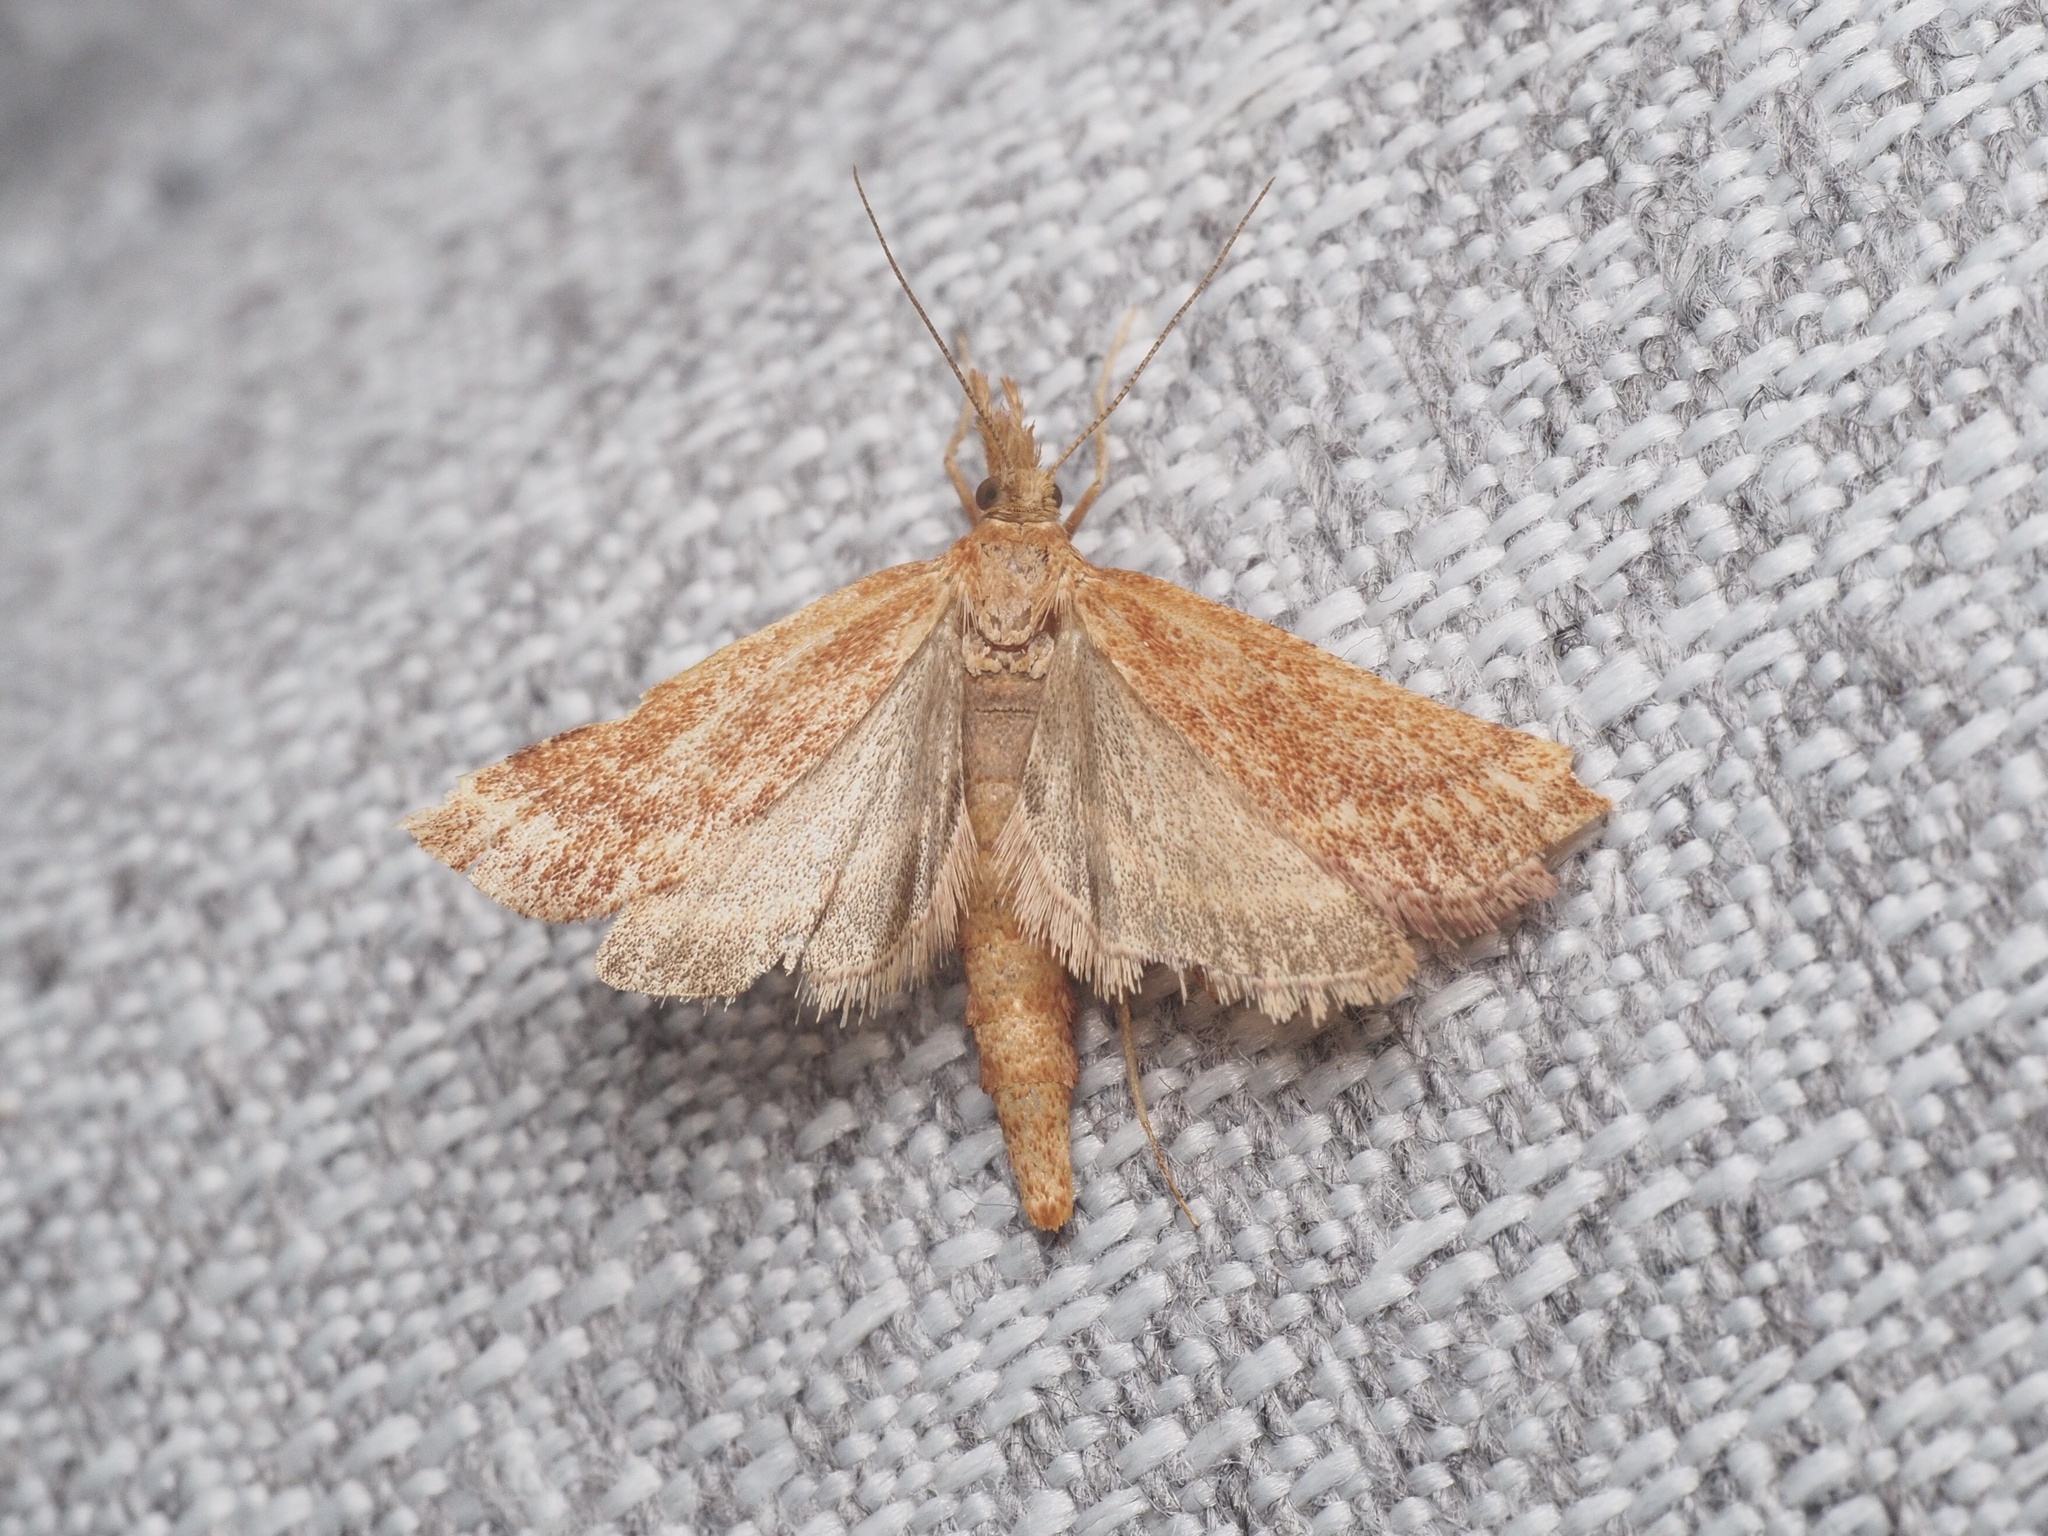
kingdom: Animalia
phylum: Arthropoda
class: Insecta
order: Lepidoptera
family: Pyralidae
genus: Synaphe
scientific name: Synaphe punctalis
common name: Long-legged tabby
